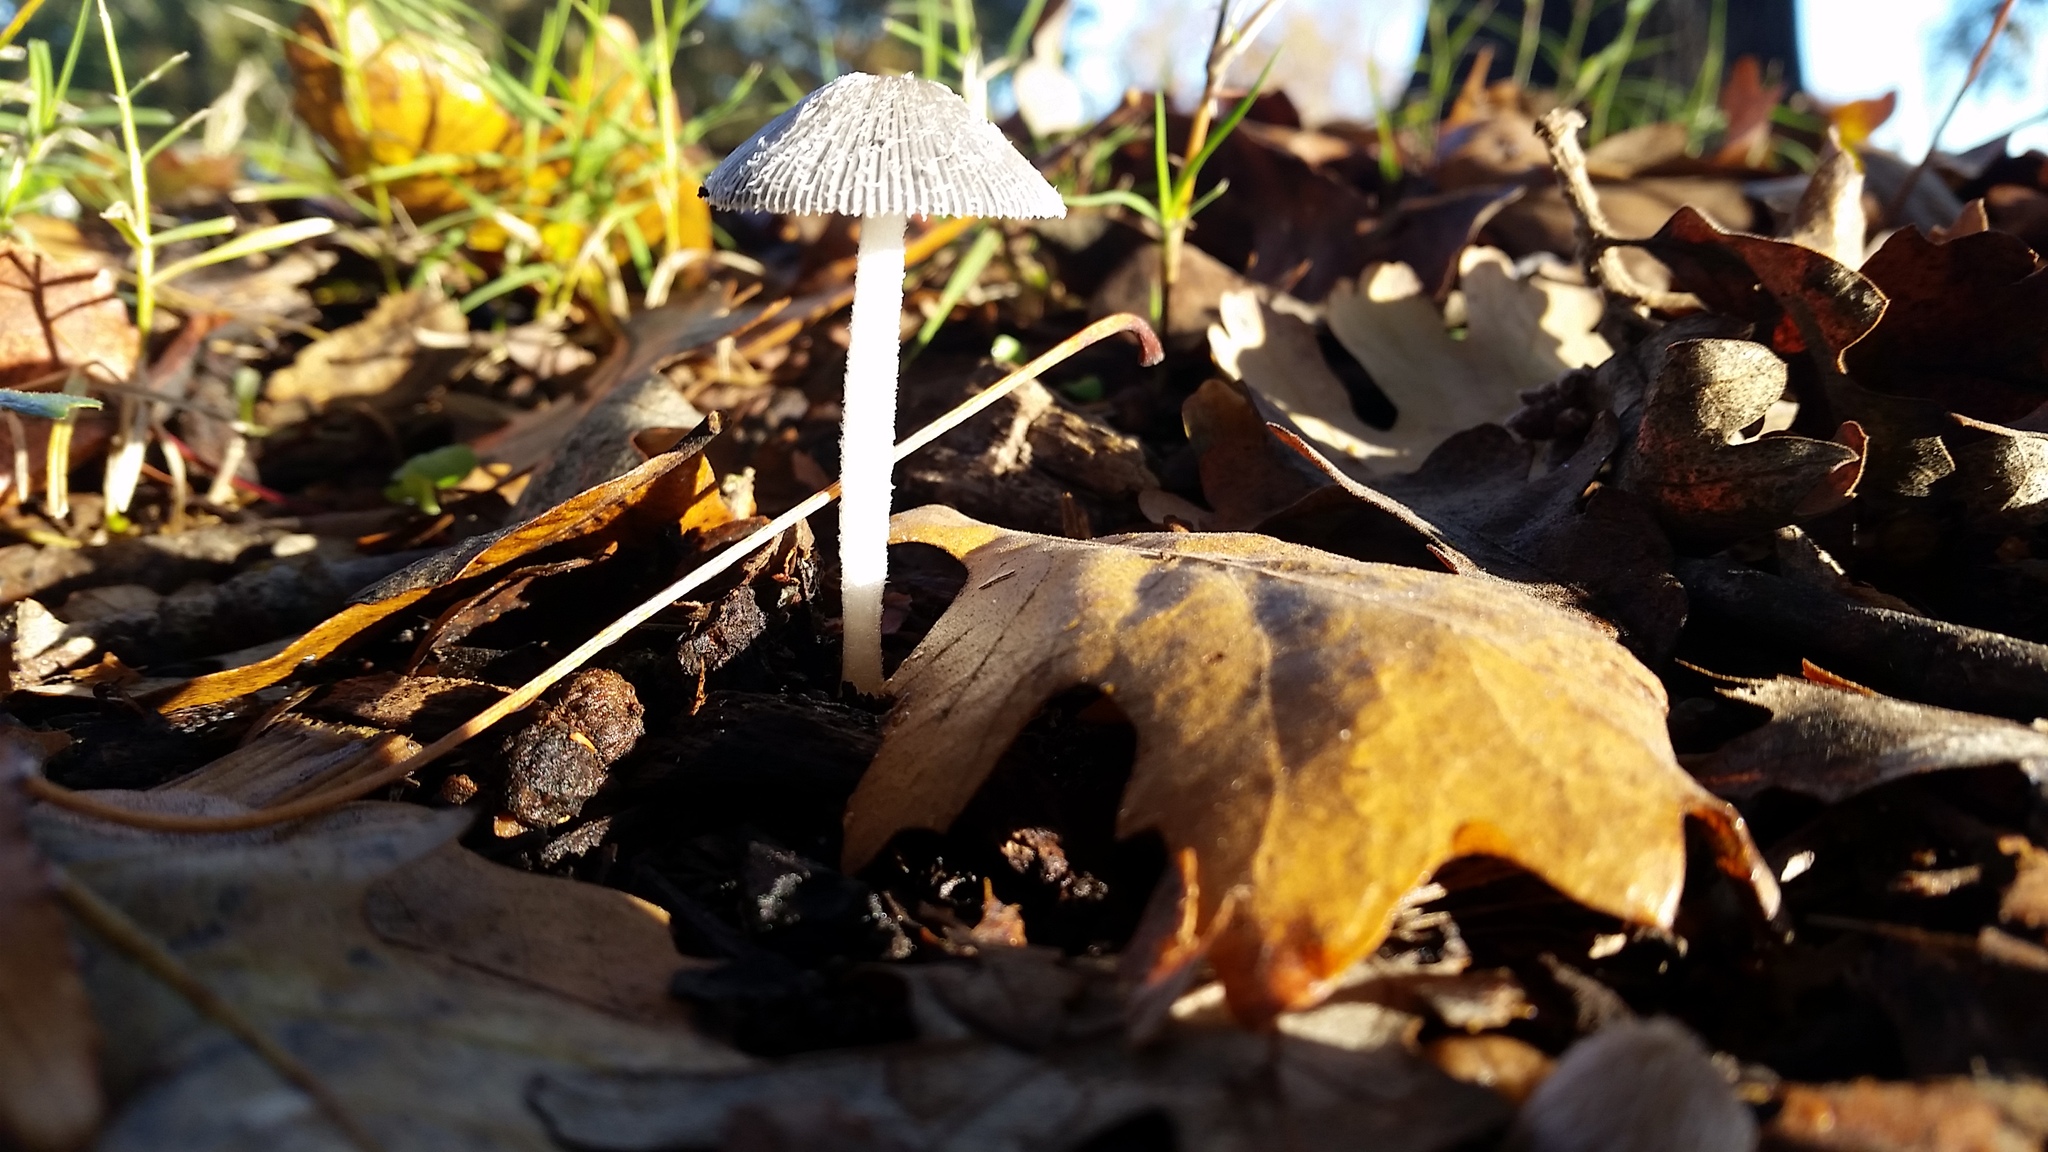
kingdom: Fungi
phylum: Basidiomycota
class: Agaricomycetes
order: Agaricales
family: Psathyrellaceae
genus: Coprinopsis
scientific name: Coprinopsis lagopus
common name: Hare'sfoot inkcap
